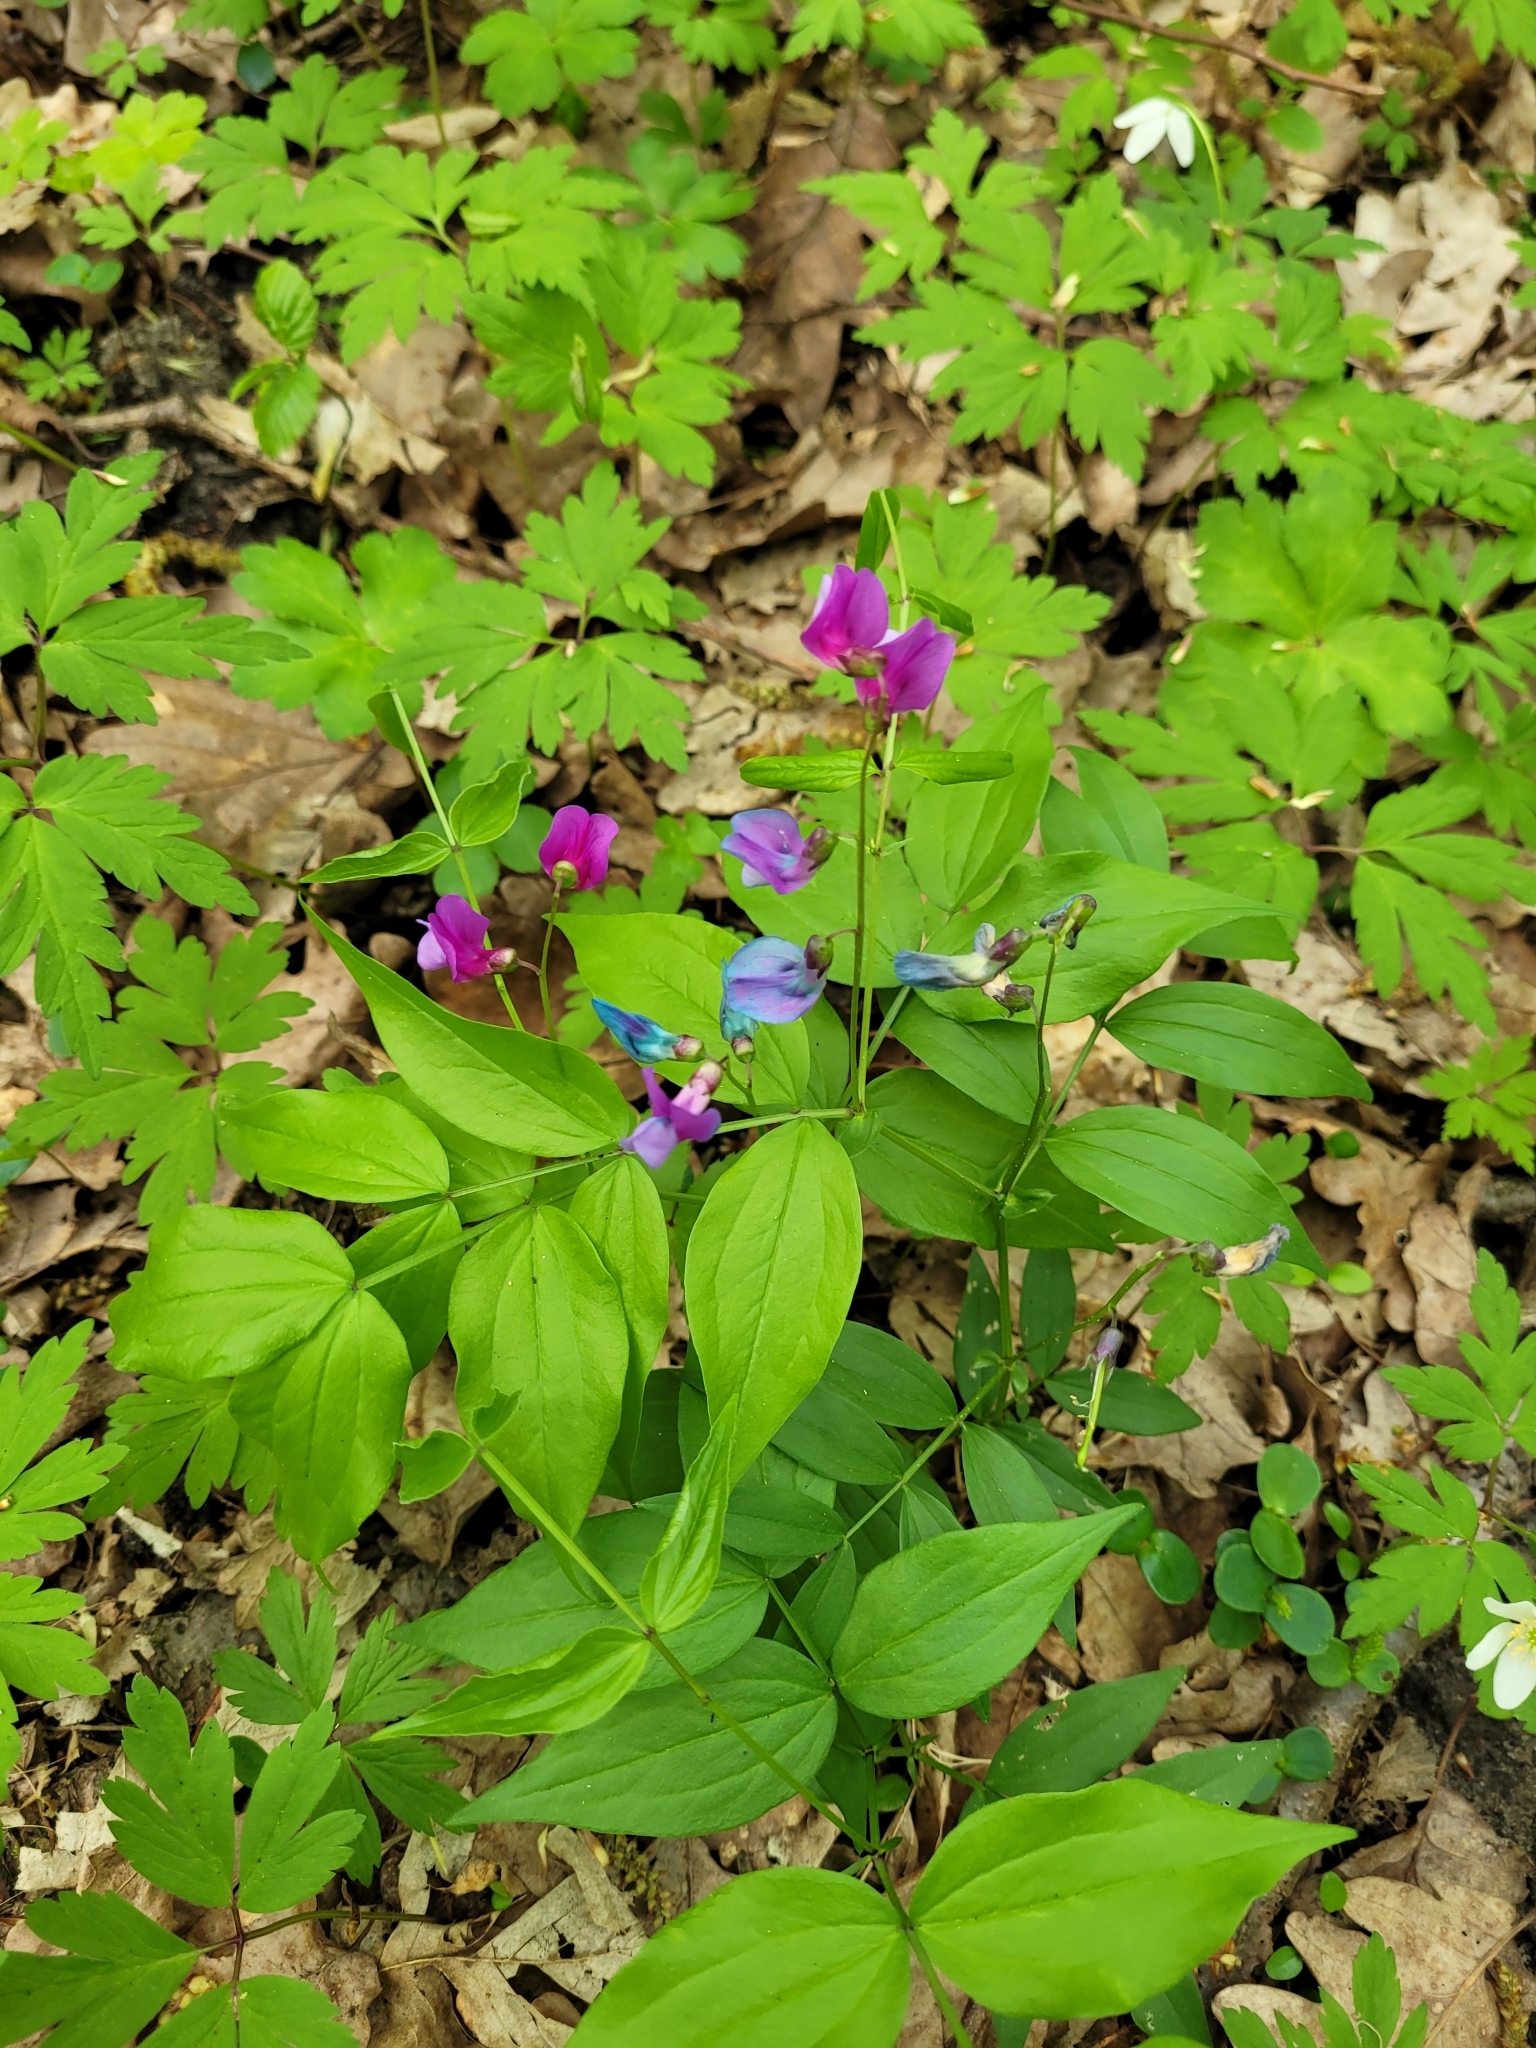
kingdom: Plantae
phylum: Tracheophyta
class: Magnoliopsida
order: Fabales
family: Fabaceae
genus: Lathyrus
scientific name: Lathyrus vernus
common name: Spring pea
